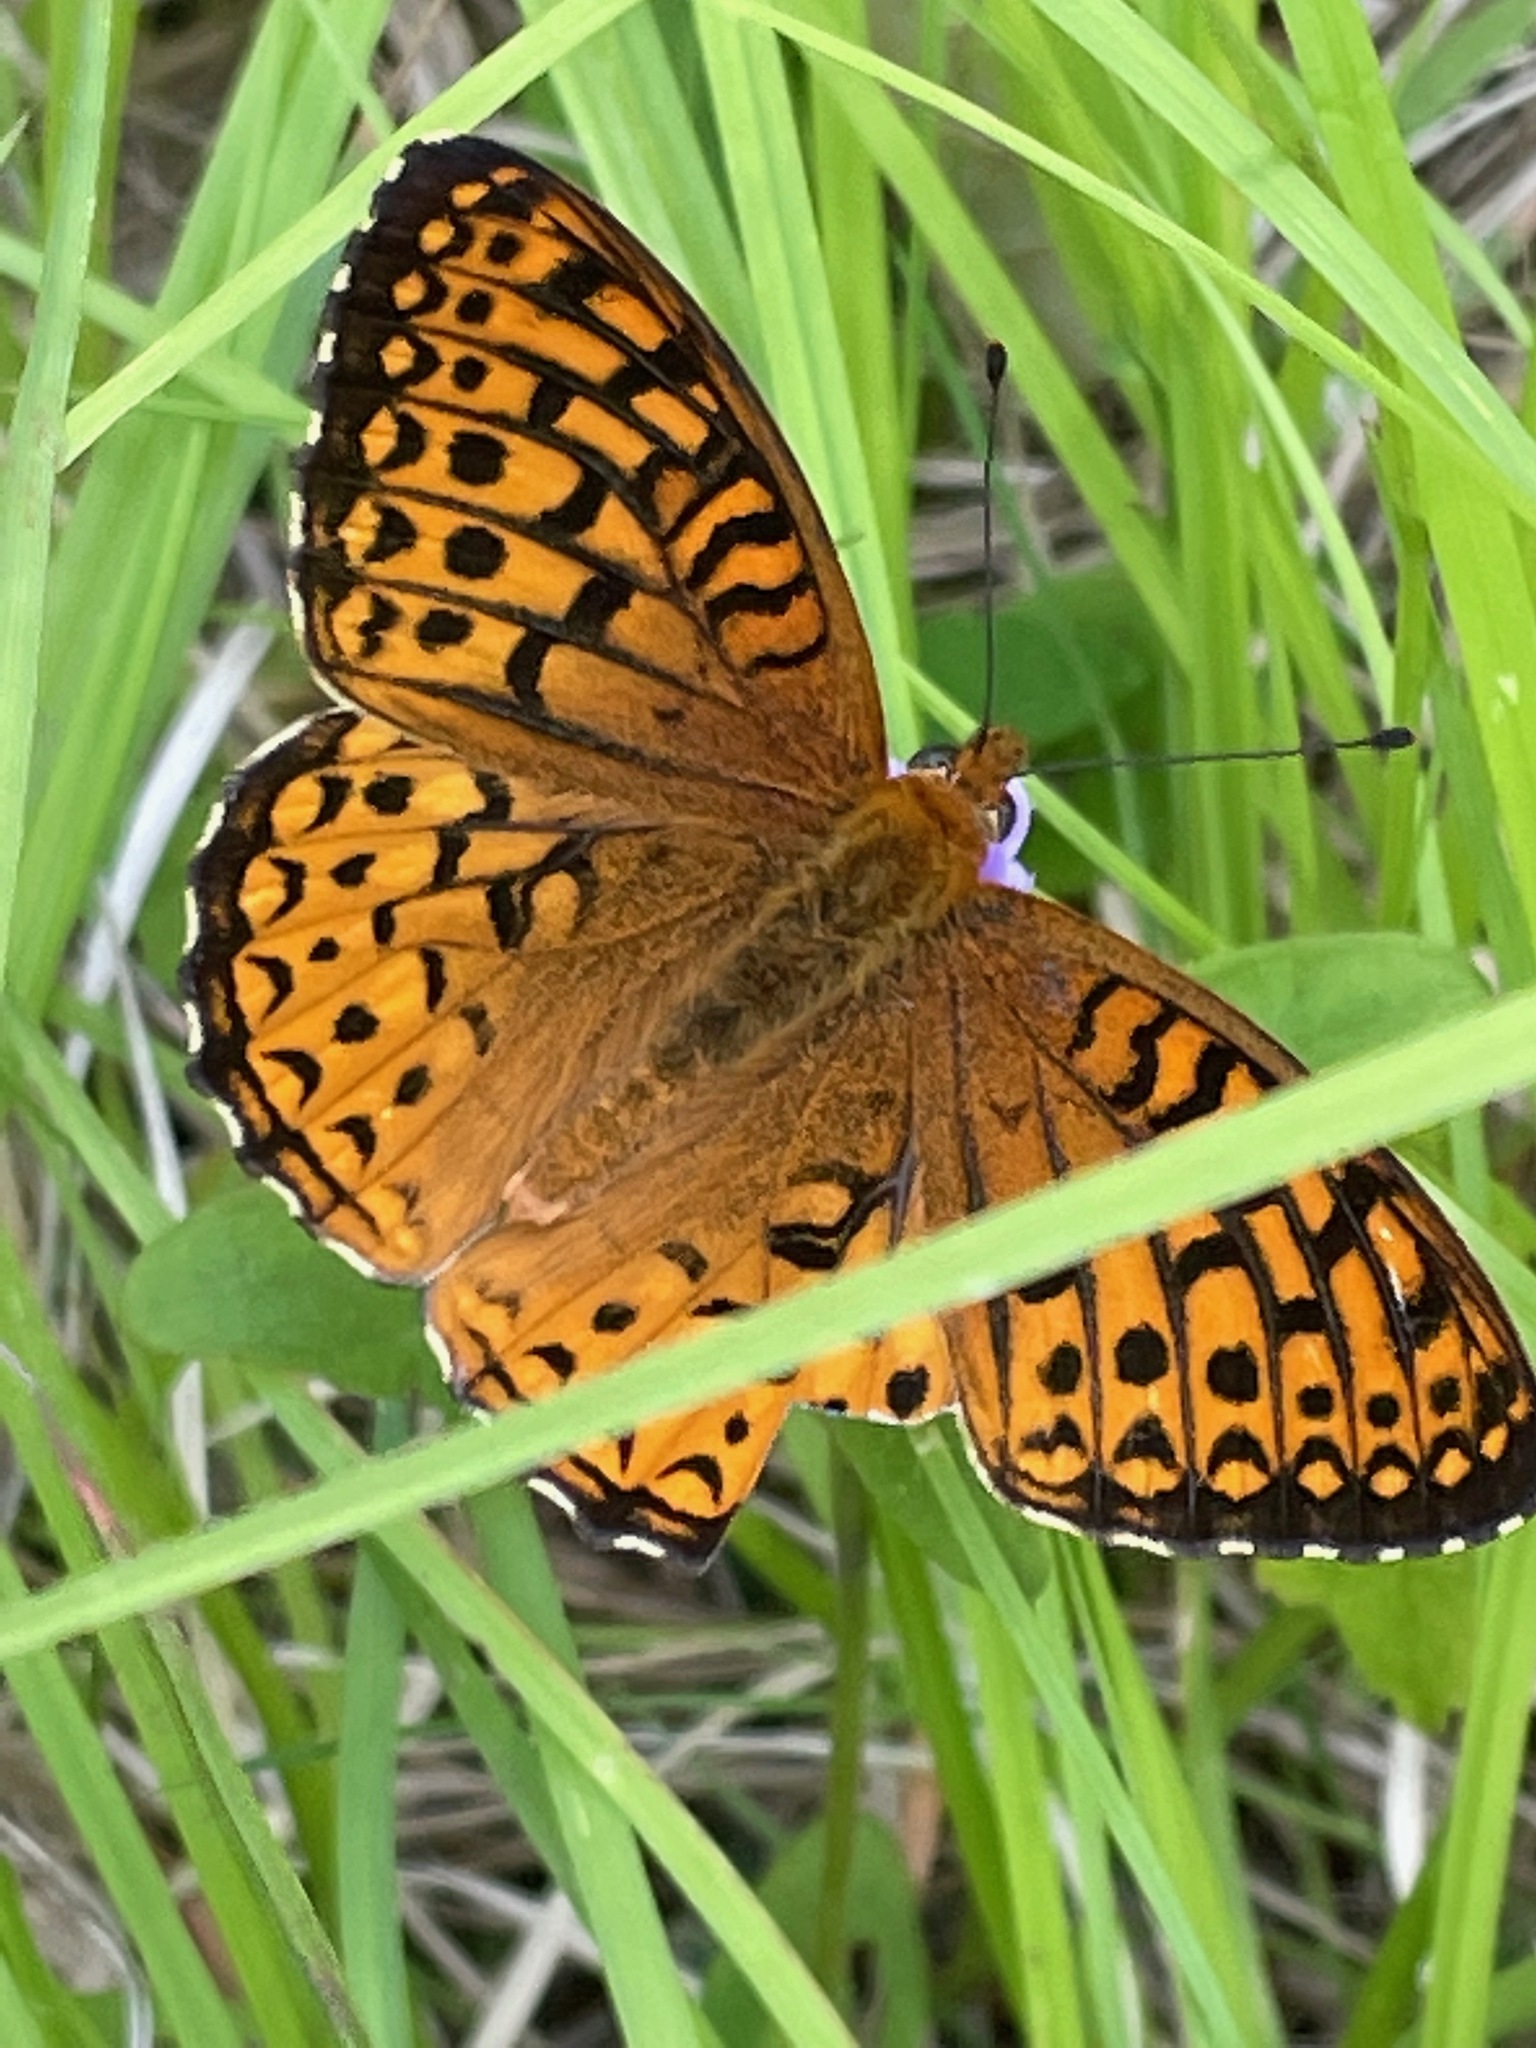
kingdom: Animalia
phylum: Arthropoda
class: Insecta
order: Lepidoptera
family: Nymphalidae
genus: Speyeria
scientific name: Speyeria atlantis
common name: Atlantis fritillary
